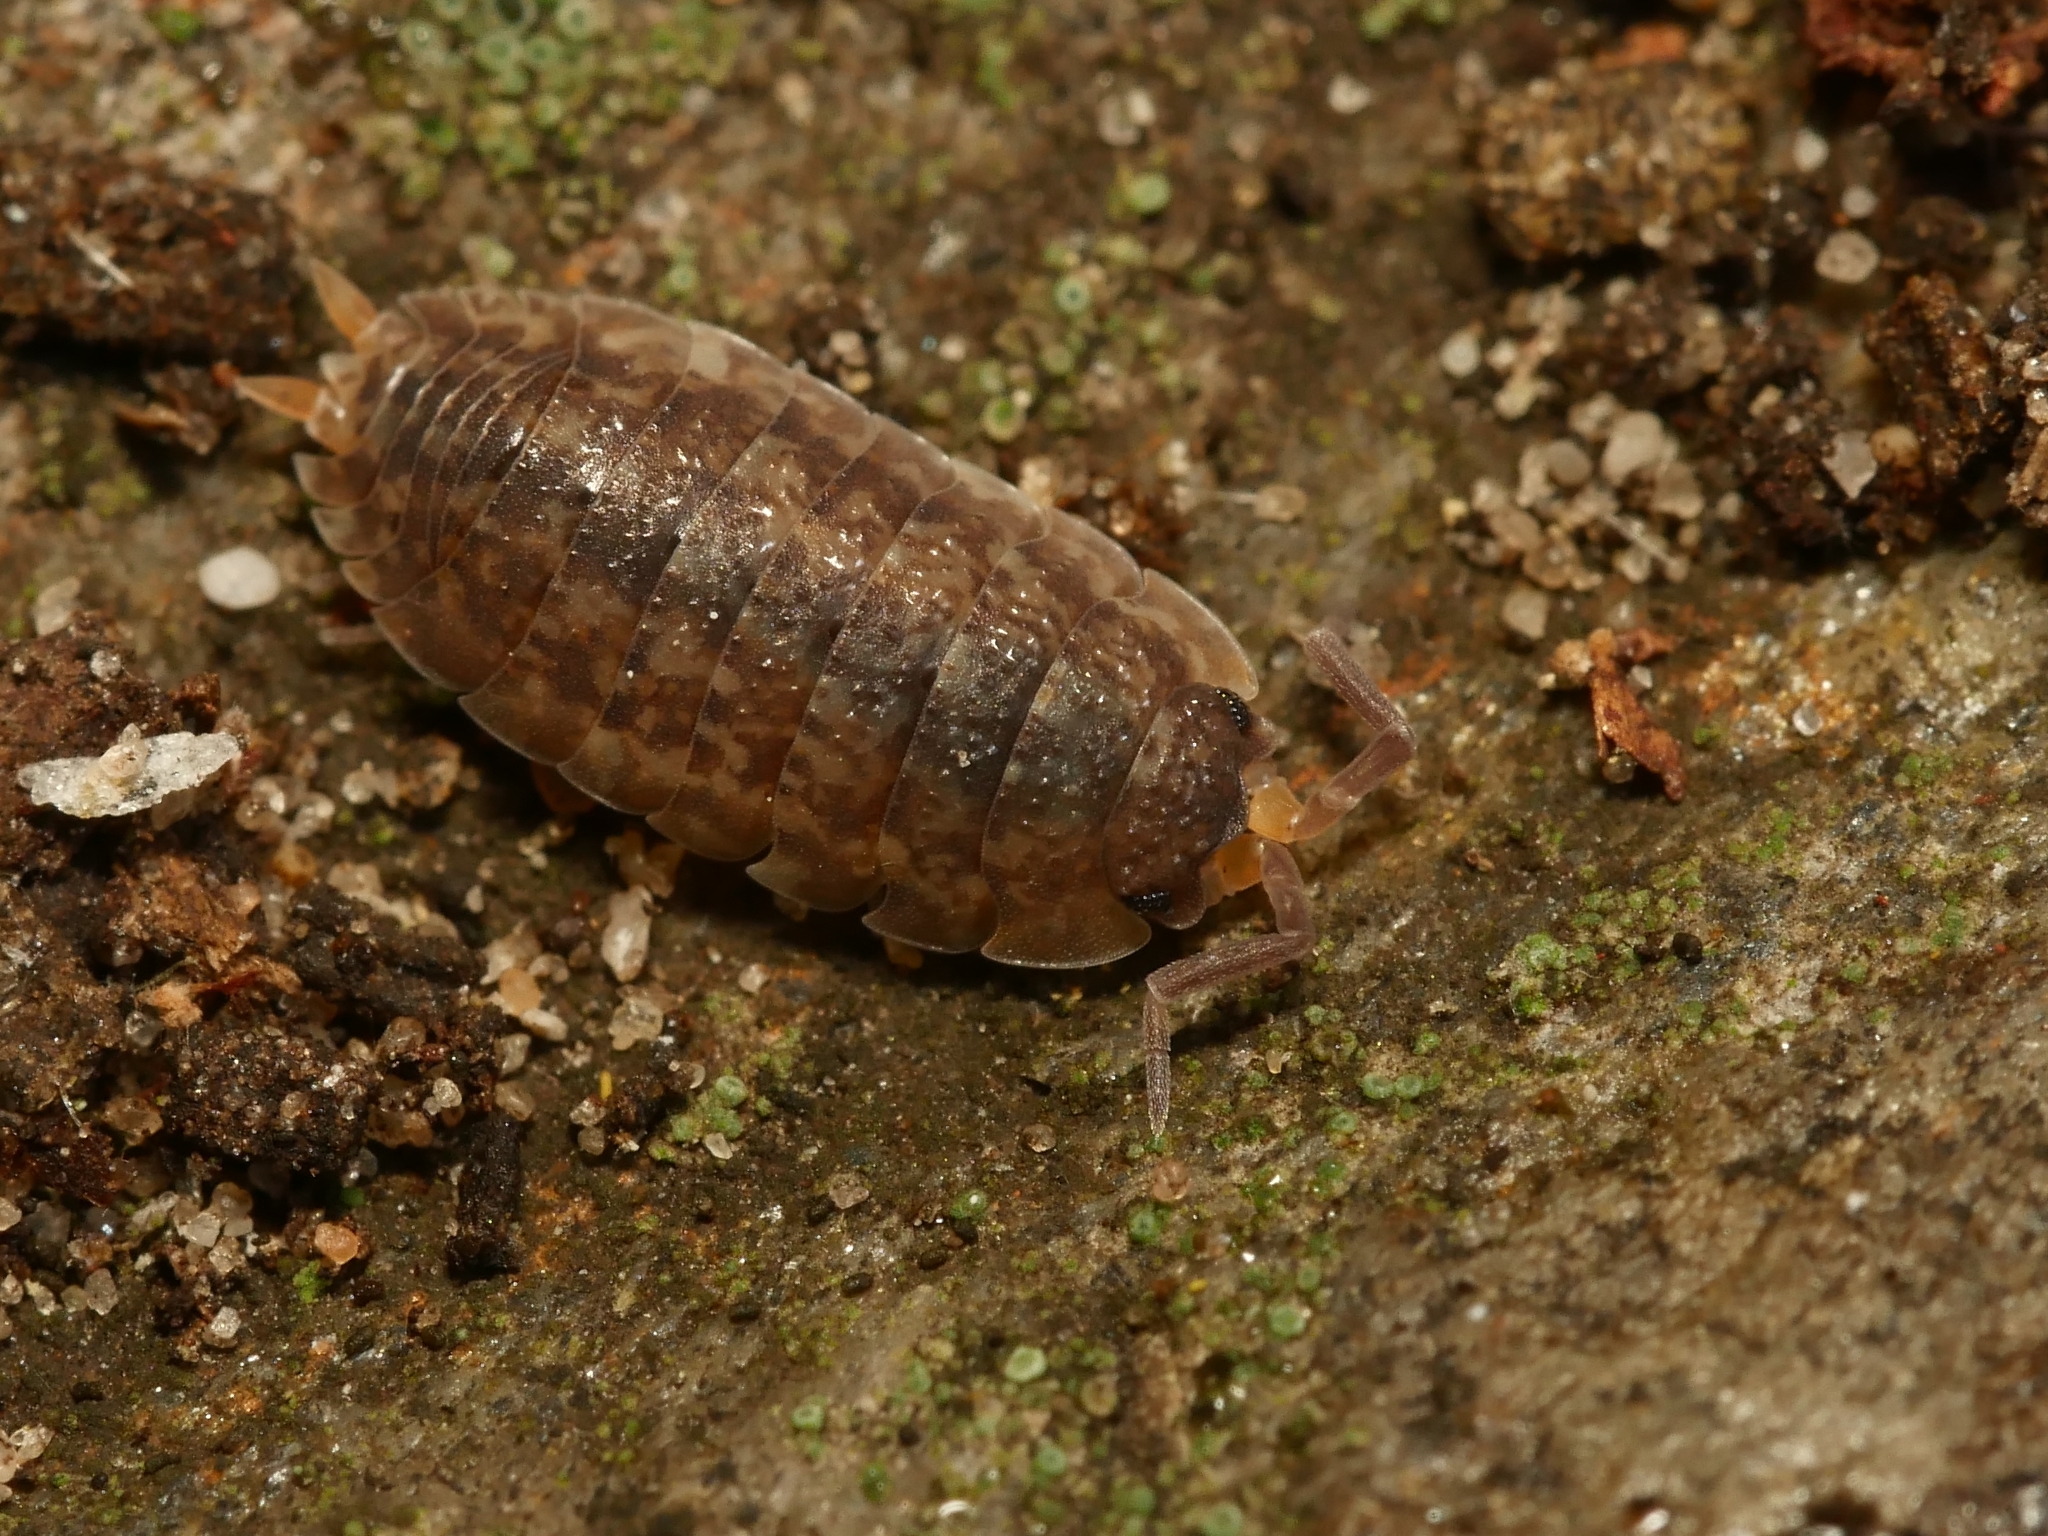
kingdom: Animalia
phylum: Arthropoda
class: Malacostraca
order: Isopoda
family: Porcellionidae
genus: Porcellio
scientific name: Porcellio scaber
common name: Common rough woodlouse
